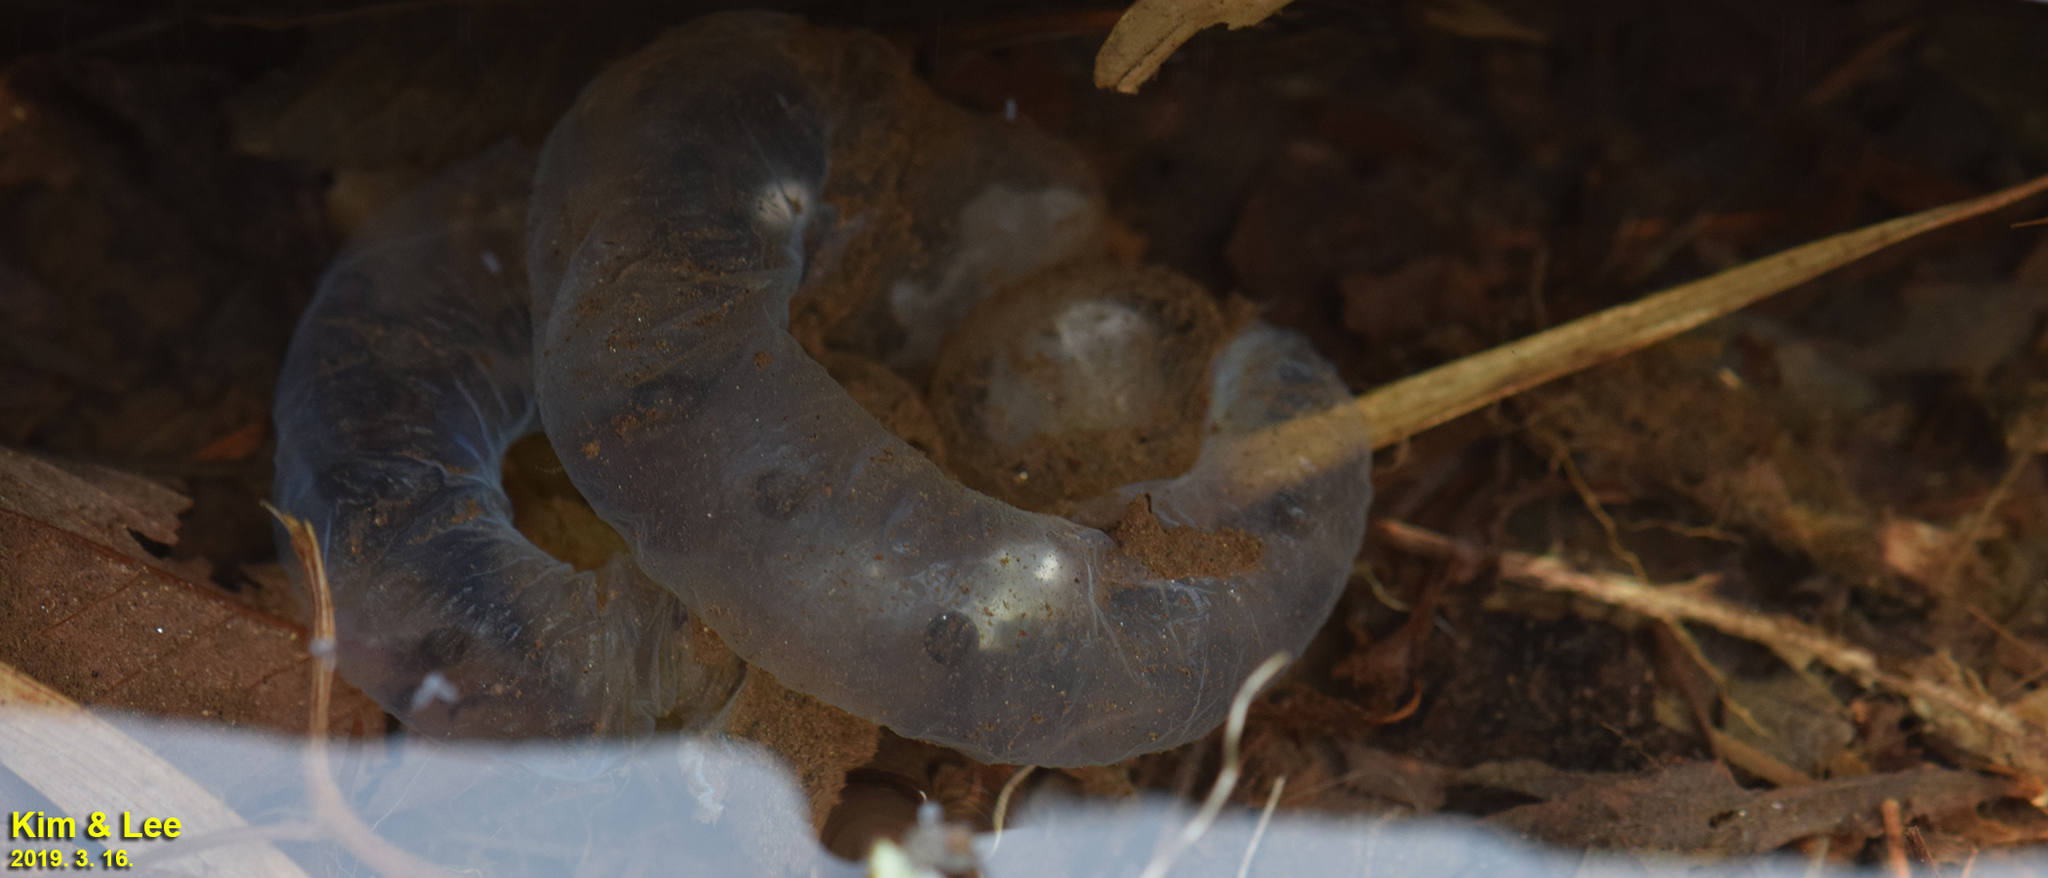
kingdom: Animalia
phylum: Chordata
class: Amphibia
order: Caudata
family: Hynobiidae
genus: Hynobius
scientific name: Hynobius leechii
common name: Gensan salamander
